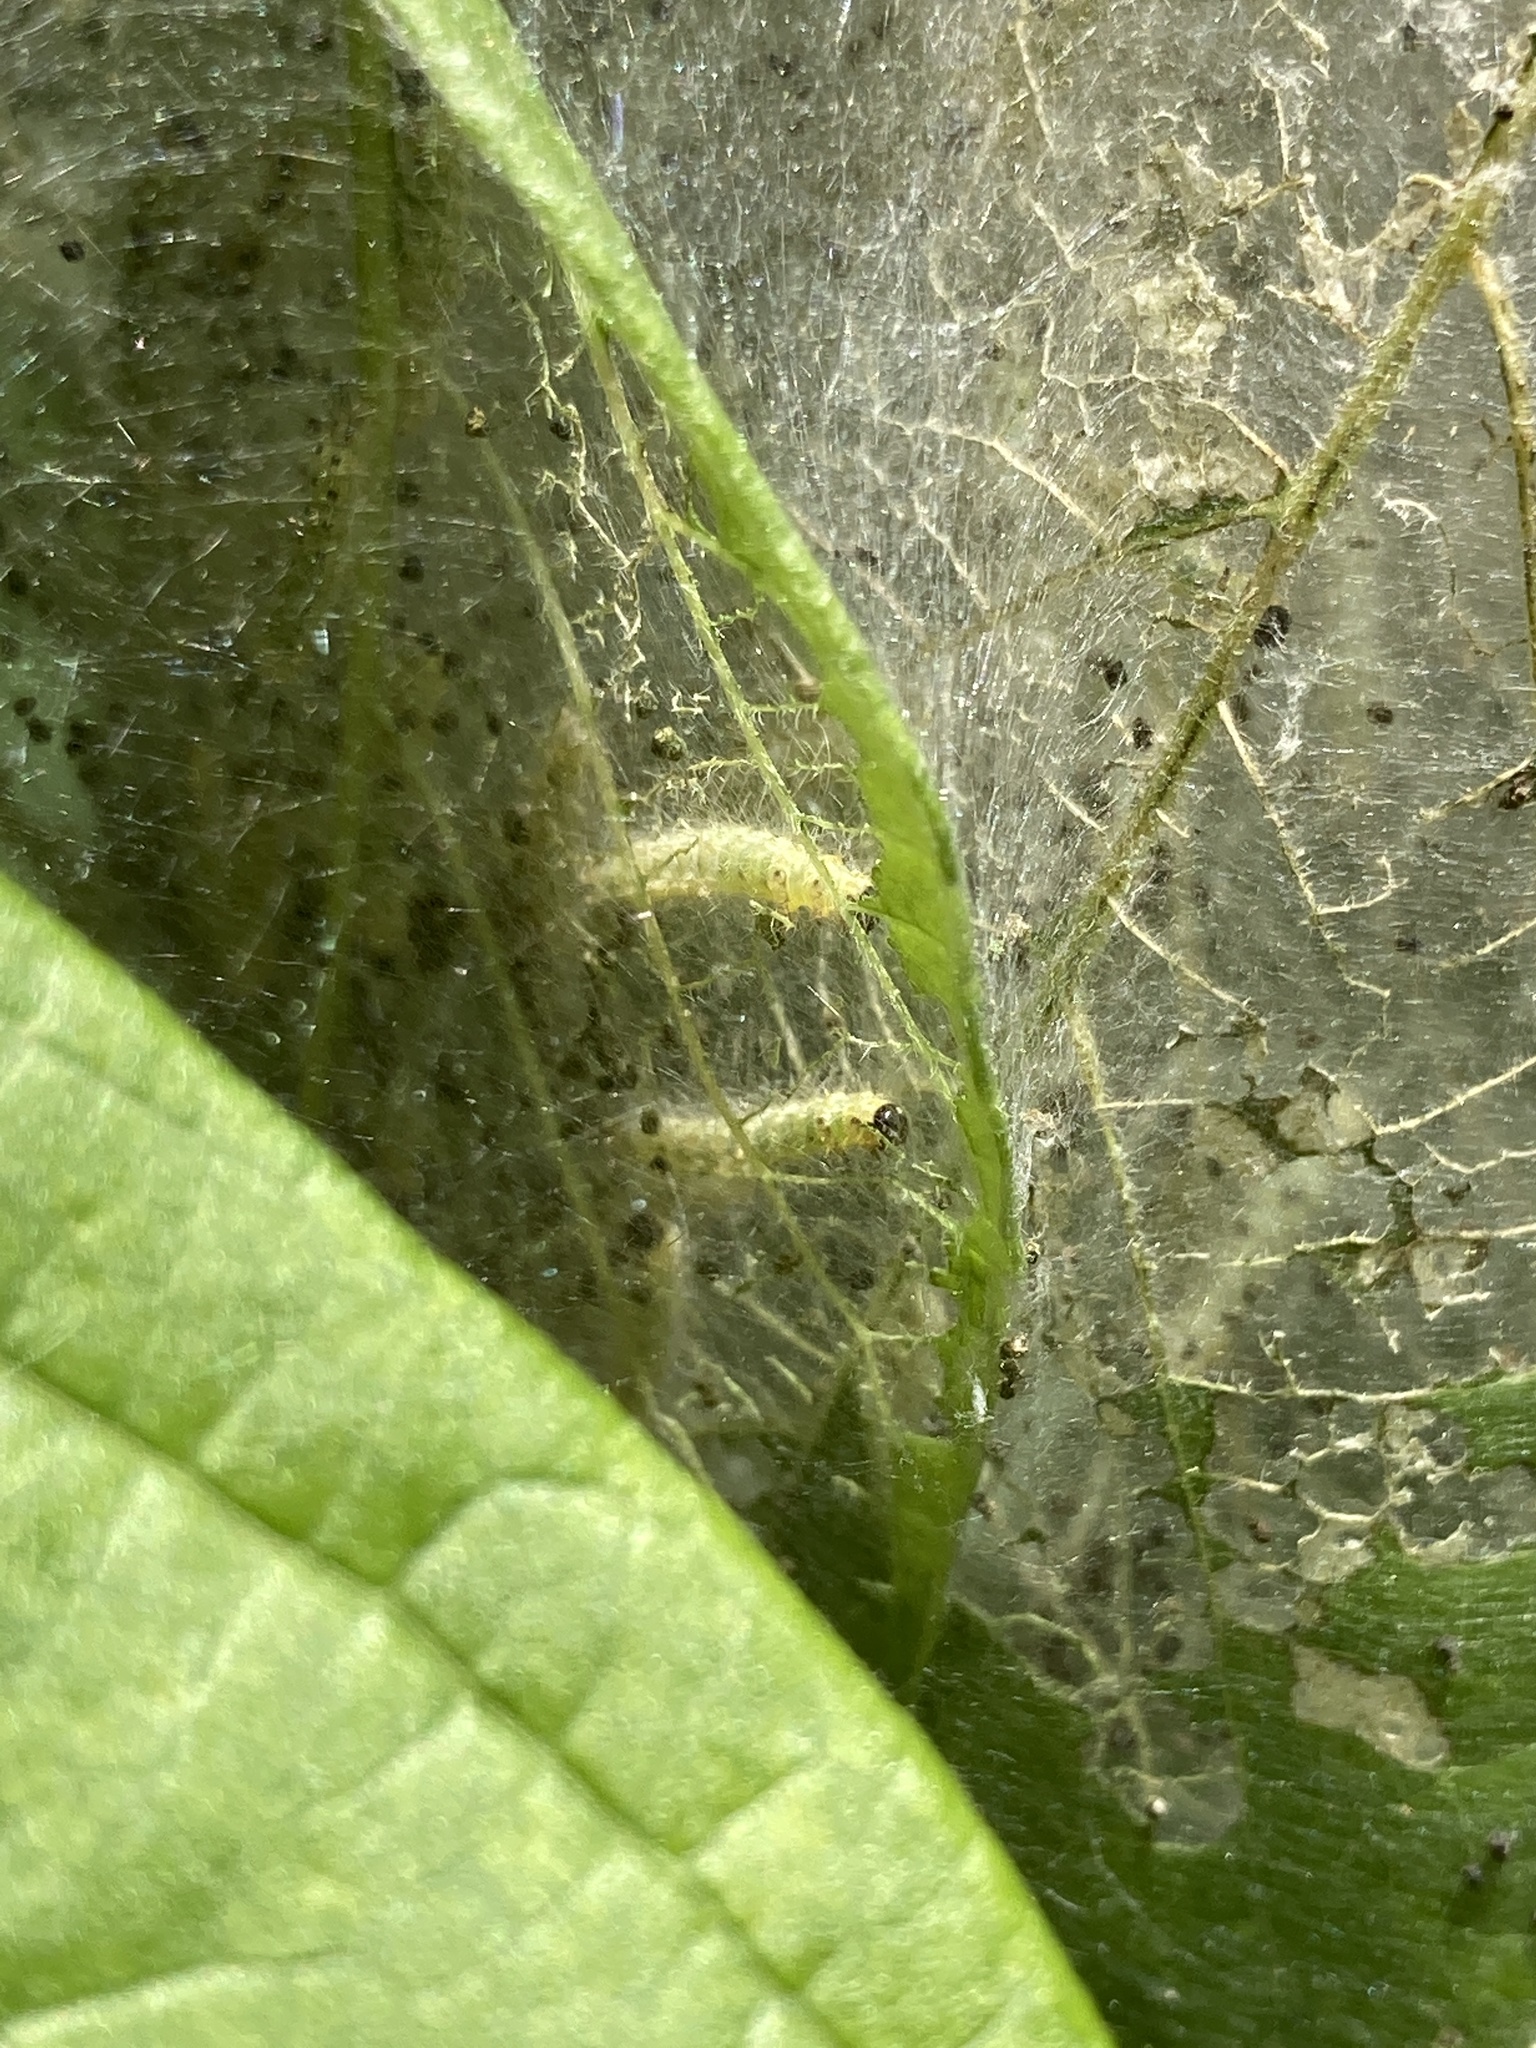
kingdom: Animalia
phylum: Arthropoda
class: Insecta
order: Lepidoptera
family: Erebidae
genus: Hyphantria
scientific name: Hyphantria cunea
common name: American white moth
